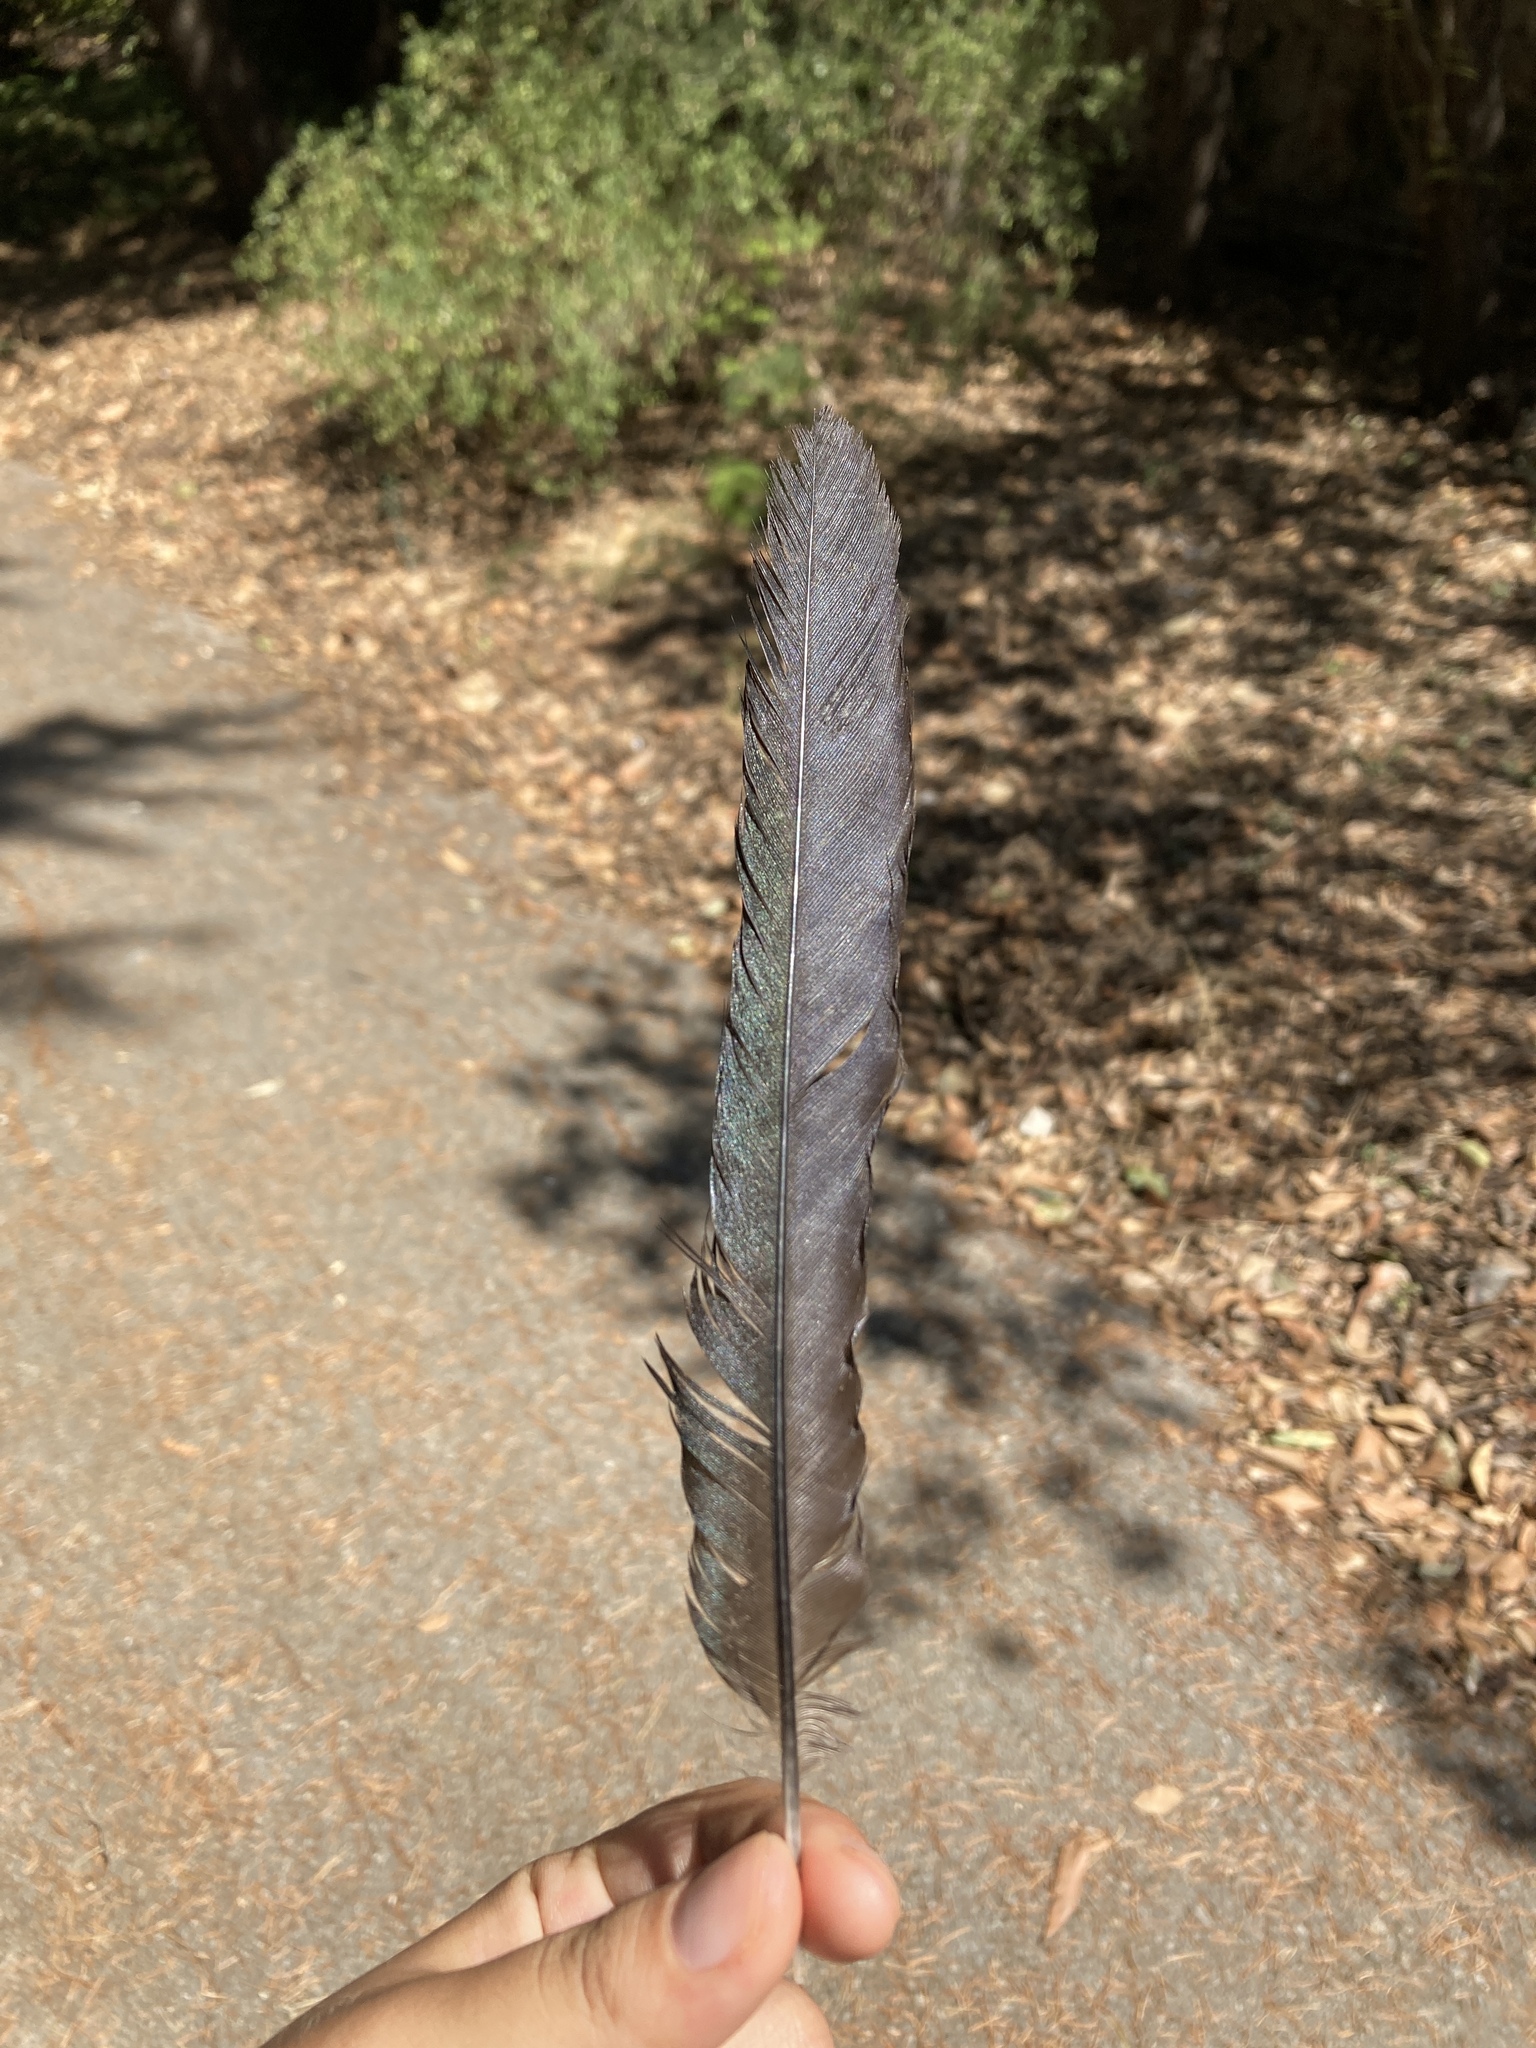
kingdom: Animalia
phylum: Chordata
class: Aves
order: Passeriformes
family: Corvidae
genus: Pica
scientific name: Pica pica
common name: Eurasian magpie
